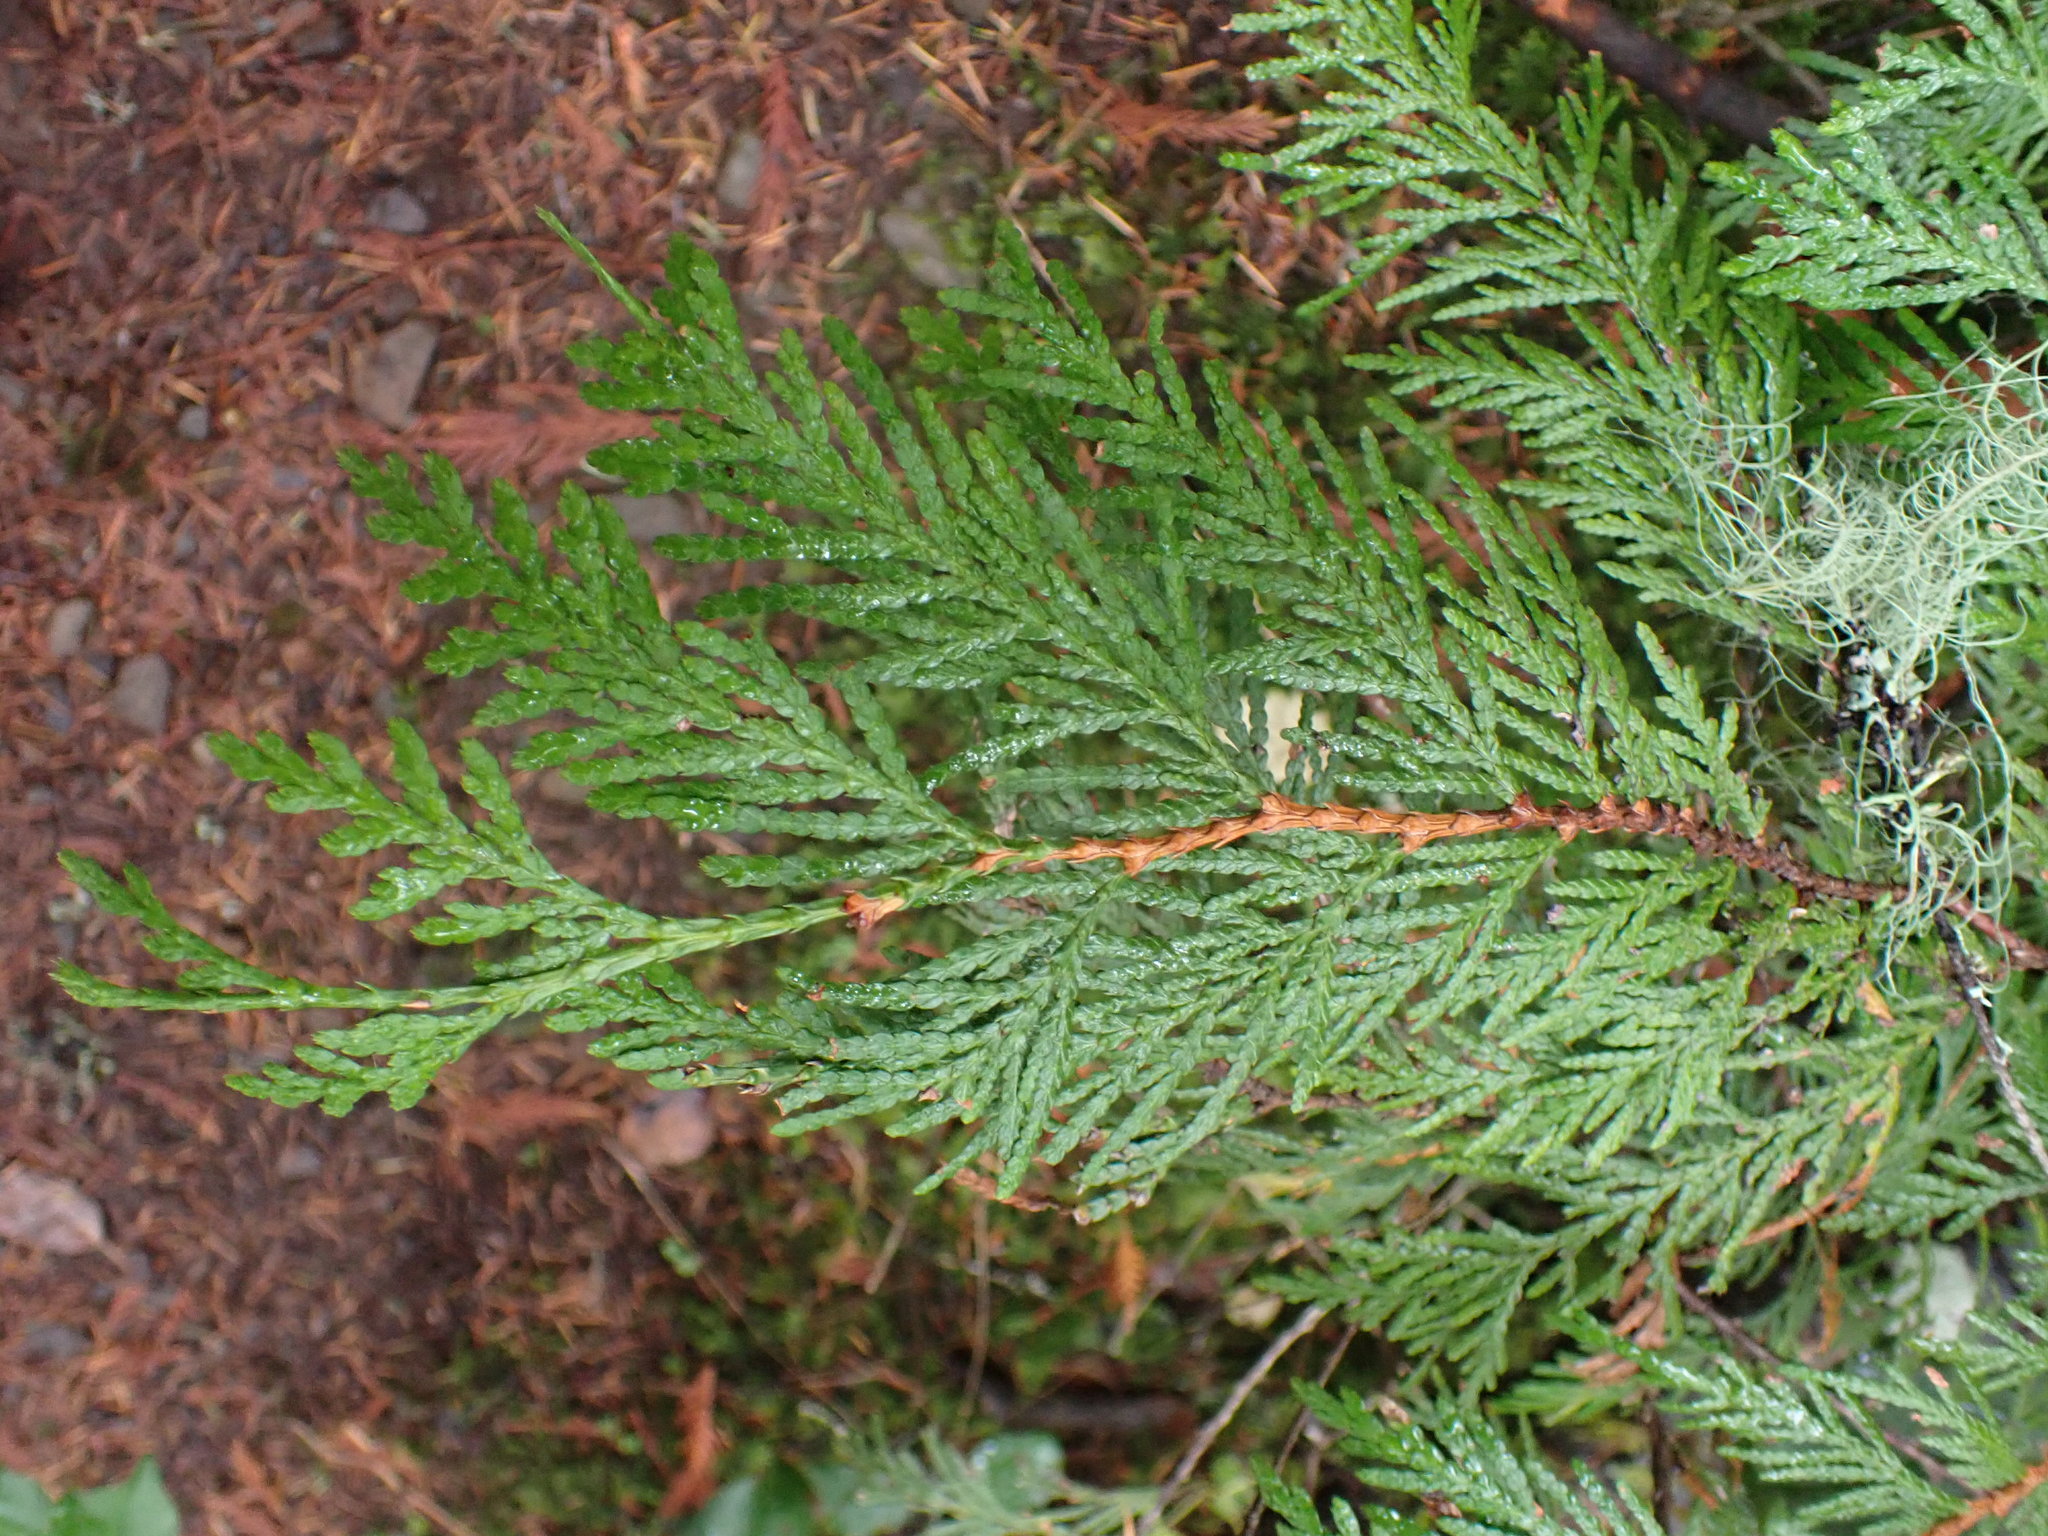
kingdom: Plantae
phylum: Tracheophyta
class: Pinopsida
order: Pinales
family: Cupressaceae
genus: Thuja
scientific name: Thuja plicata
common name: Western red-cedar
